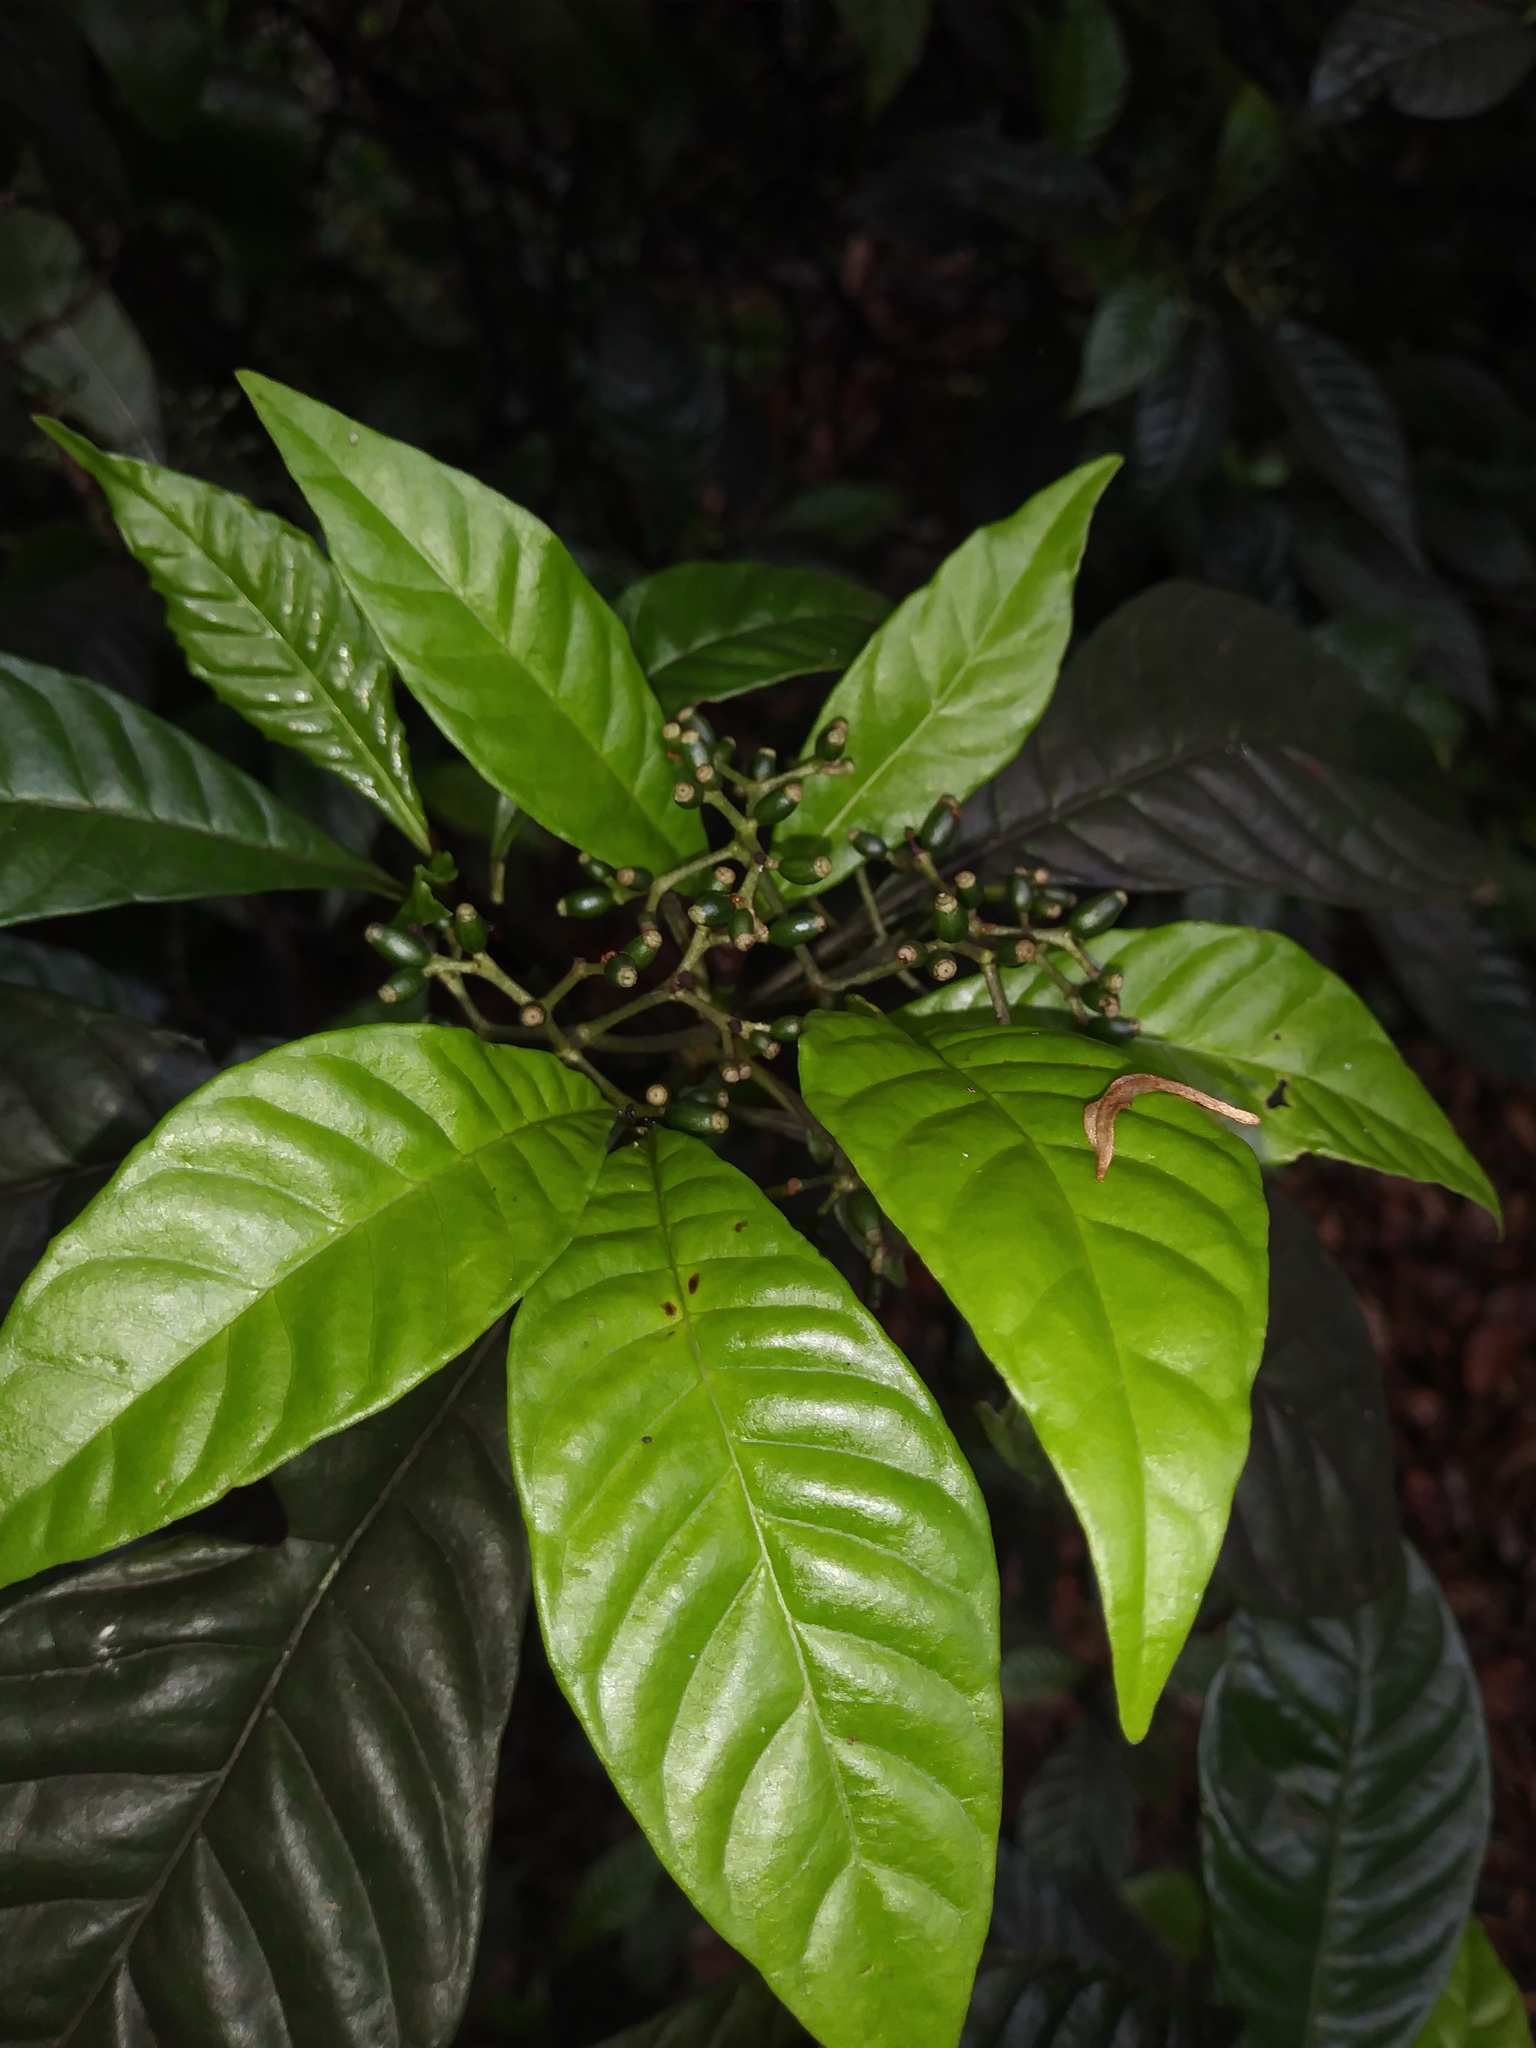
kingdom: Plantae
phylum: Tracheophyta
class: Magnoliopsida
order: Gentianales
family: Rubiaceae
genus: Psychotria
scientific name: Psychotria nervosa
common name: Bastard cankerberry
